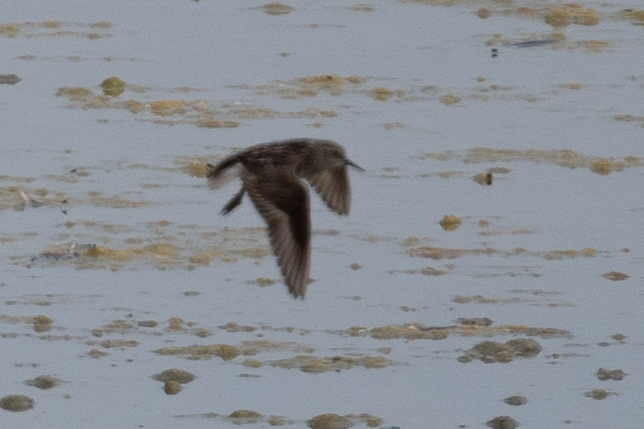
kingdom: Animalia
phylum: Chordata
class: Aves
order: Charadriiformes
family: Scolopacidae
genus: Calidris
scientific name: Calidris minutilla
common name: Least sandpiper
